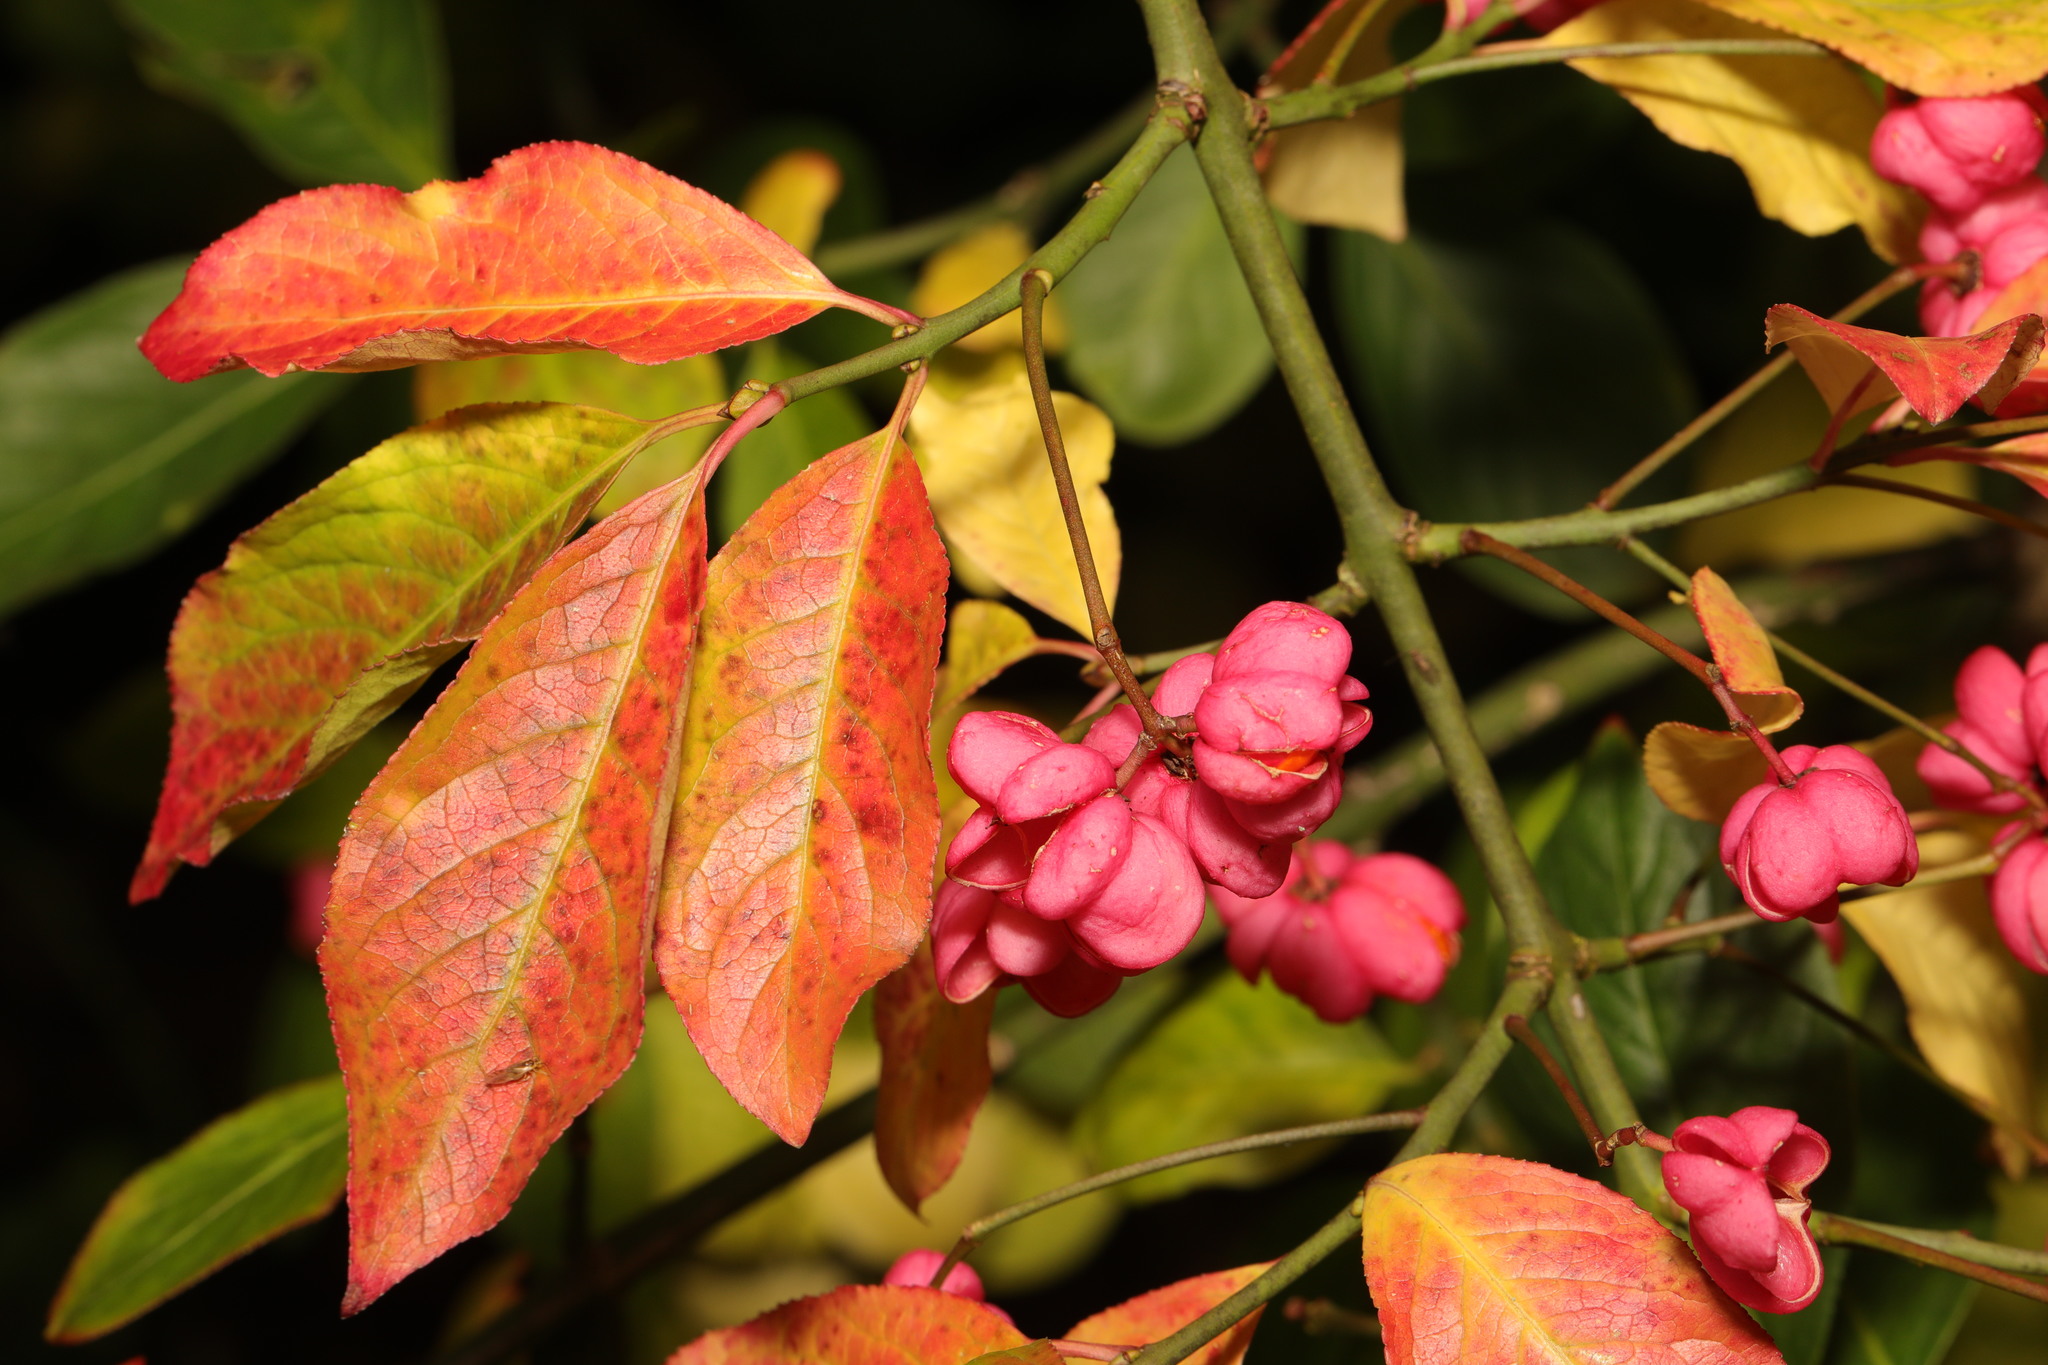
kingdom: Plantae
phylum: Tracheophyta
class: Magnoliopsida
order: Celastrales
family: Celastraceae
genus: Euonymus
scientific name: Euonymus europaeus
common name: Spindle
